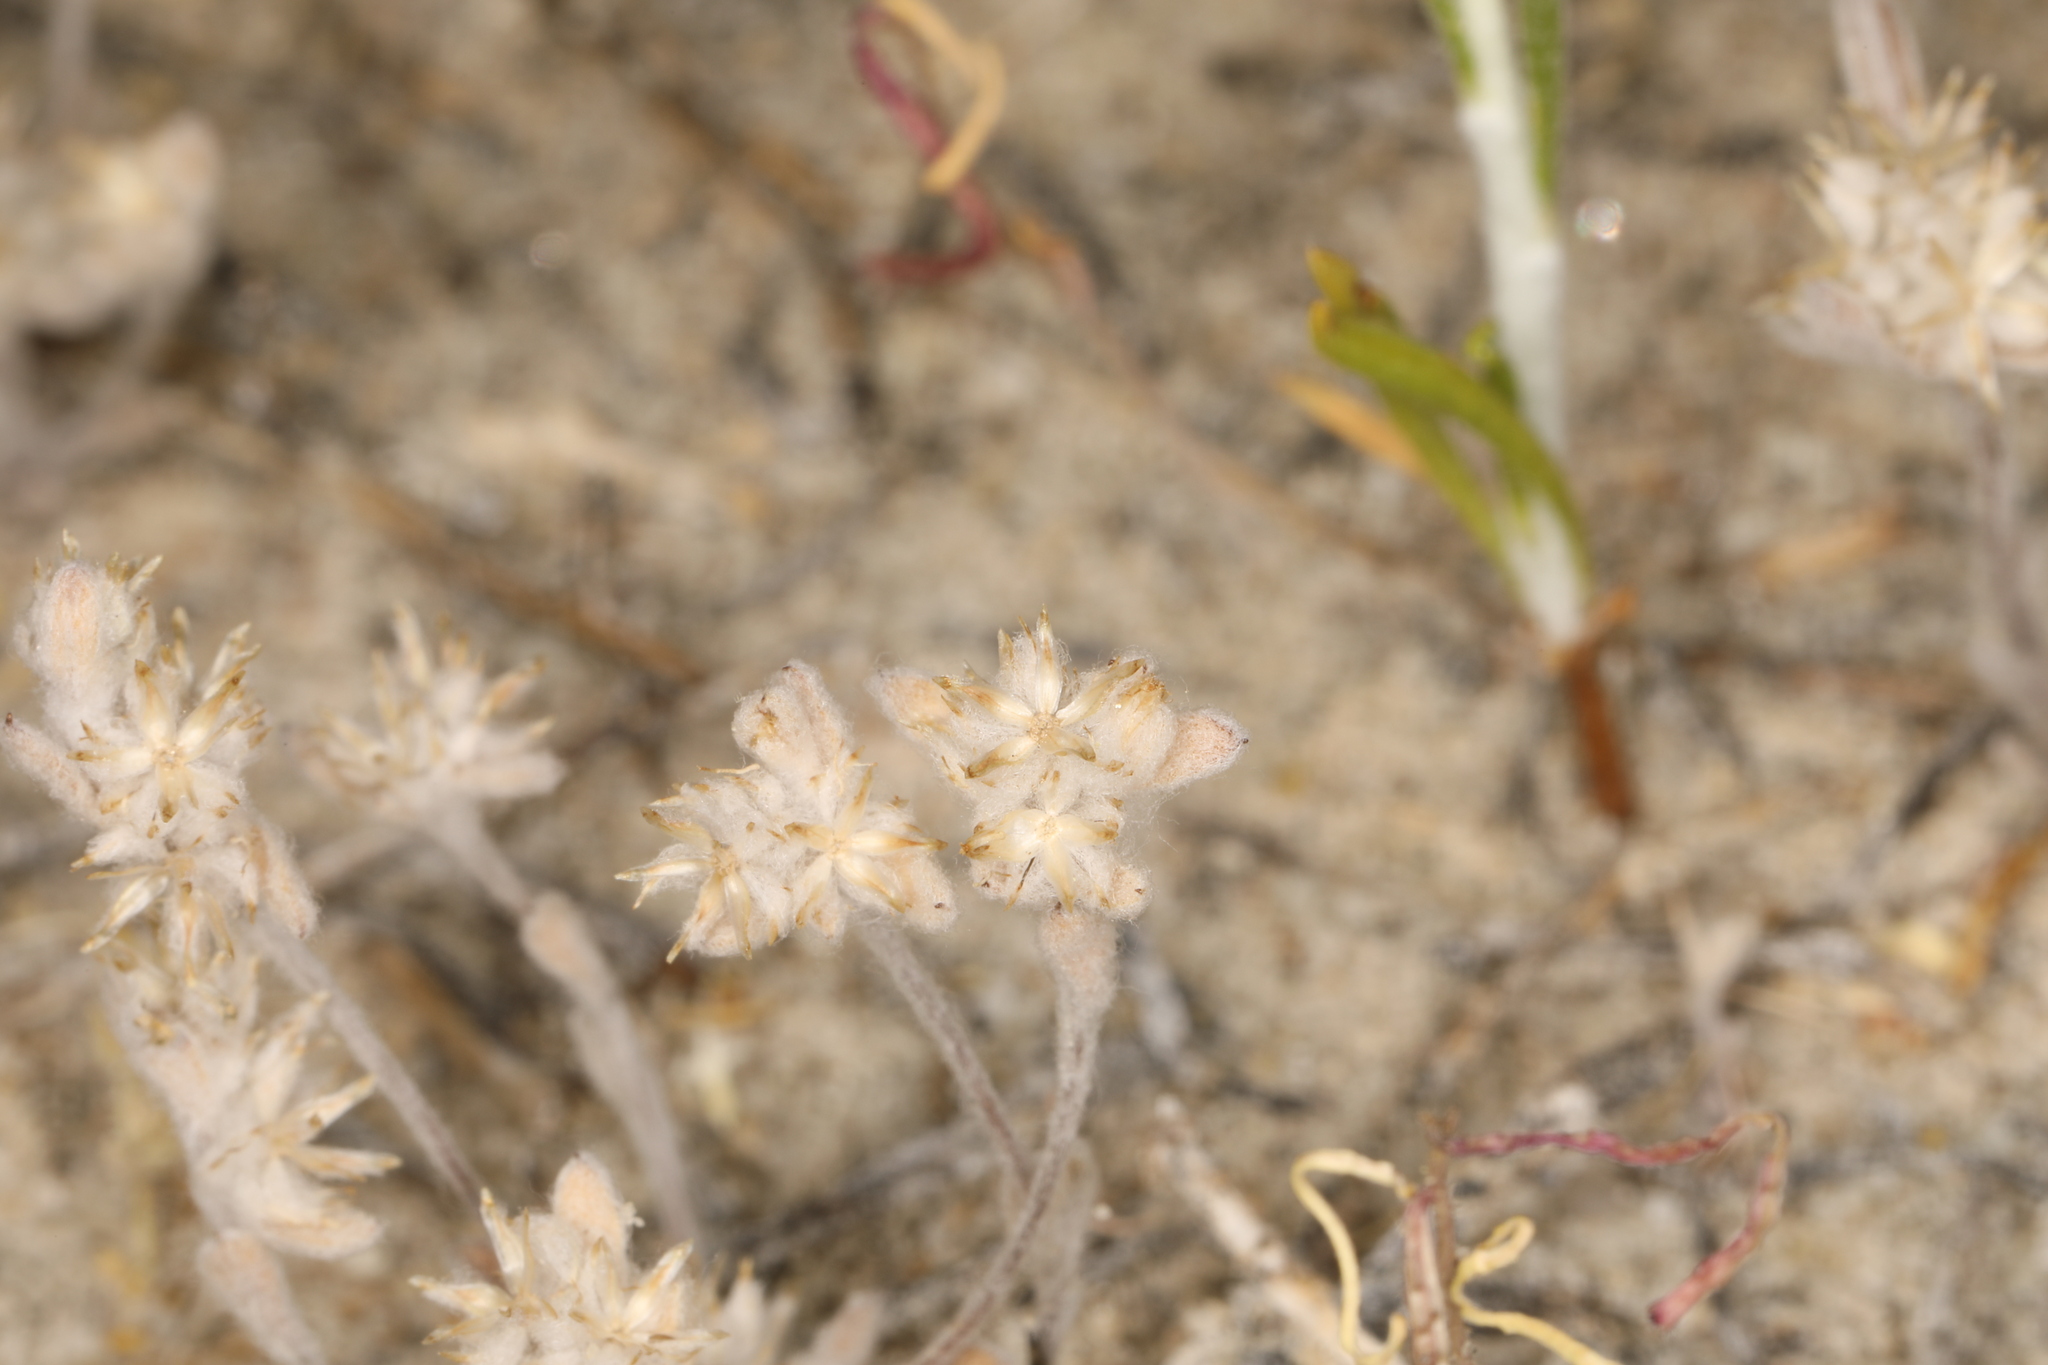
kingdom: Plantae
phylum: Tracheophyta
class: Magnoliopsida
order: Asterales
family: Asteraceae
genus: Logfia
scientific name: Logfia depressa
